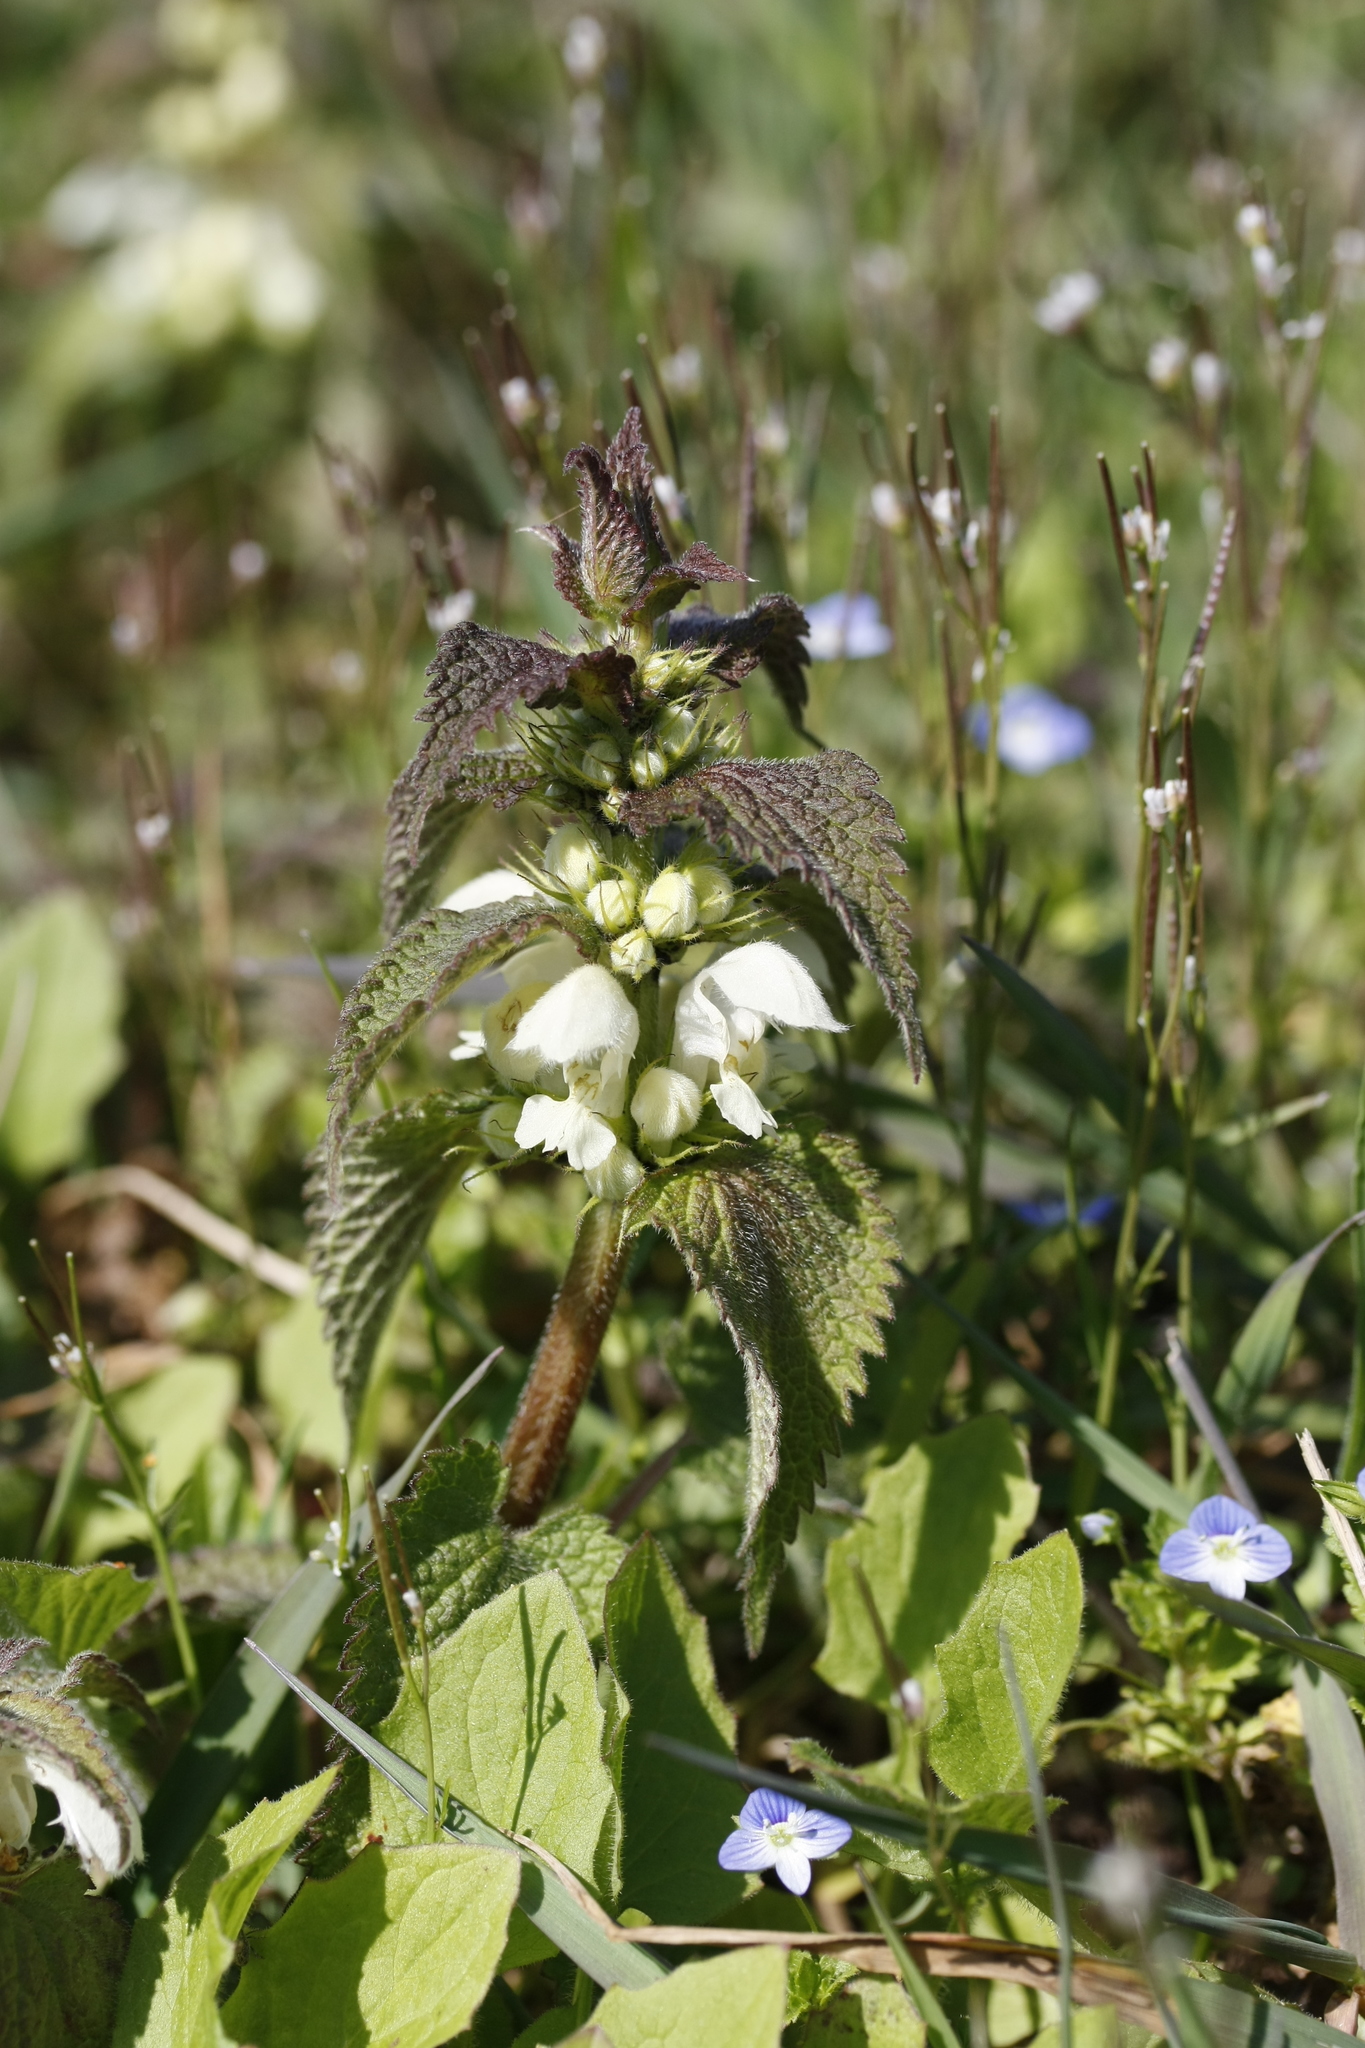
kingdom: Plantae
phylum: Tracheophyta
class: Magnoliopsida
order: Lamiales
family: Lamiaceae
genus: Lamium
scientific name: Lamium album
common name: White dead-nettle
